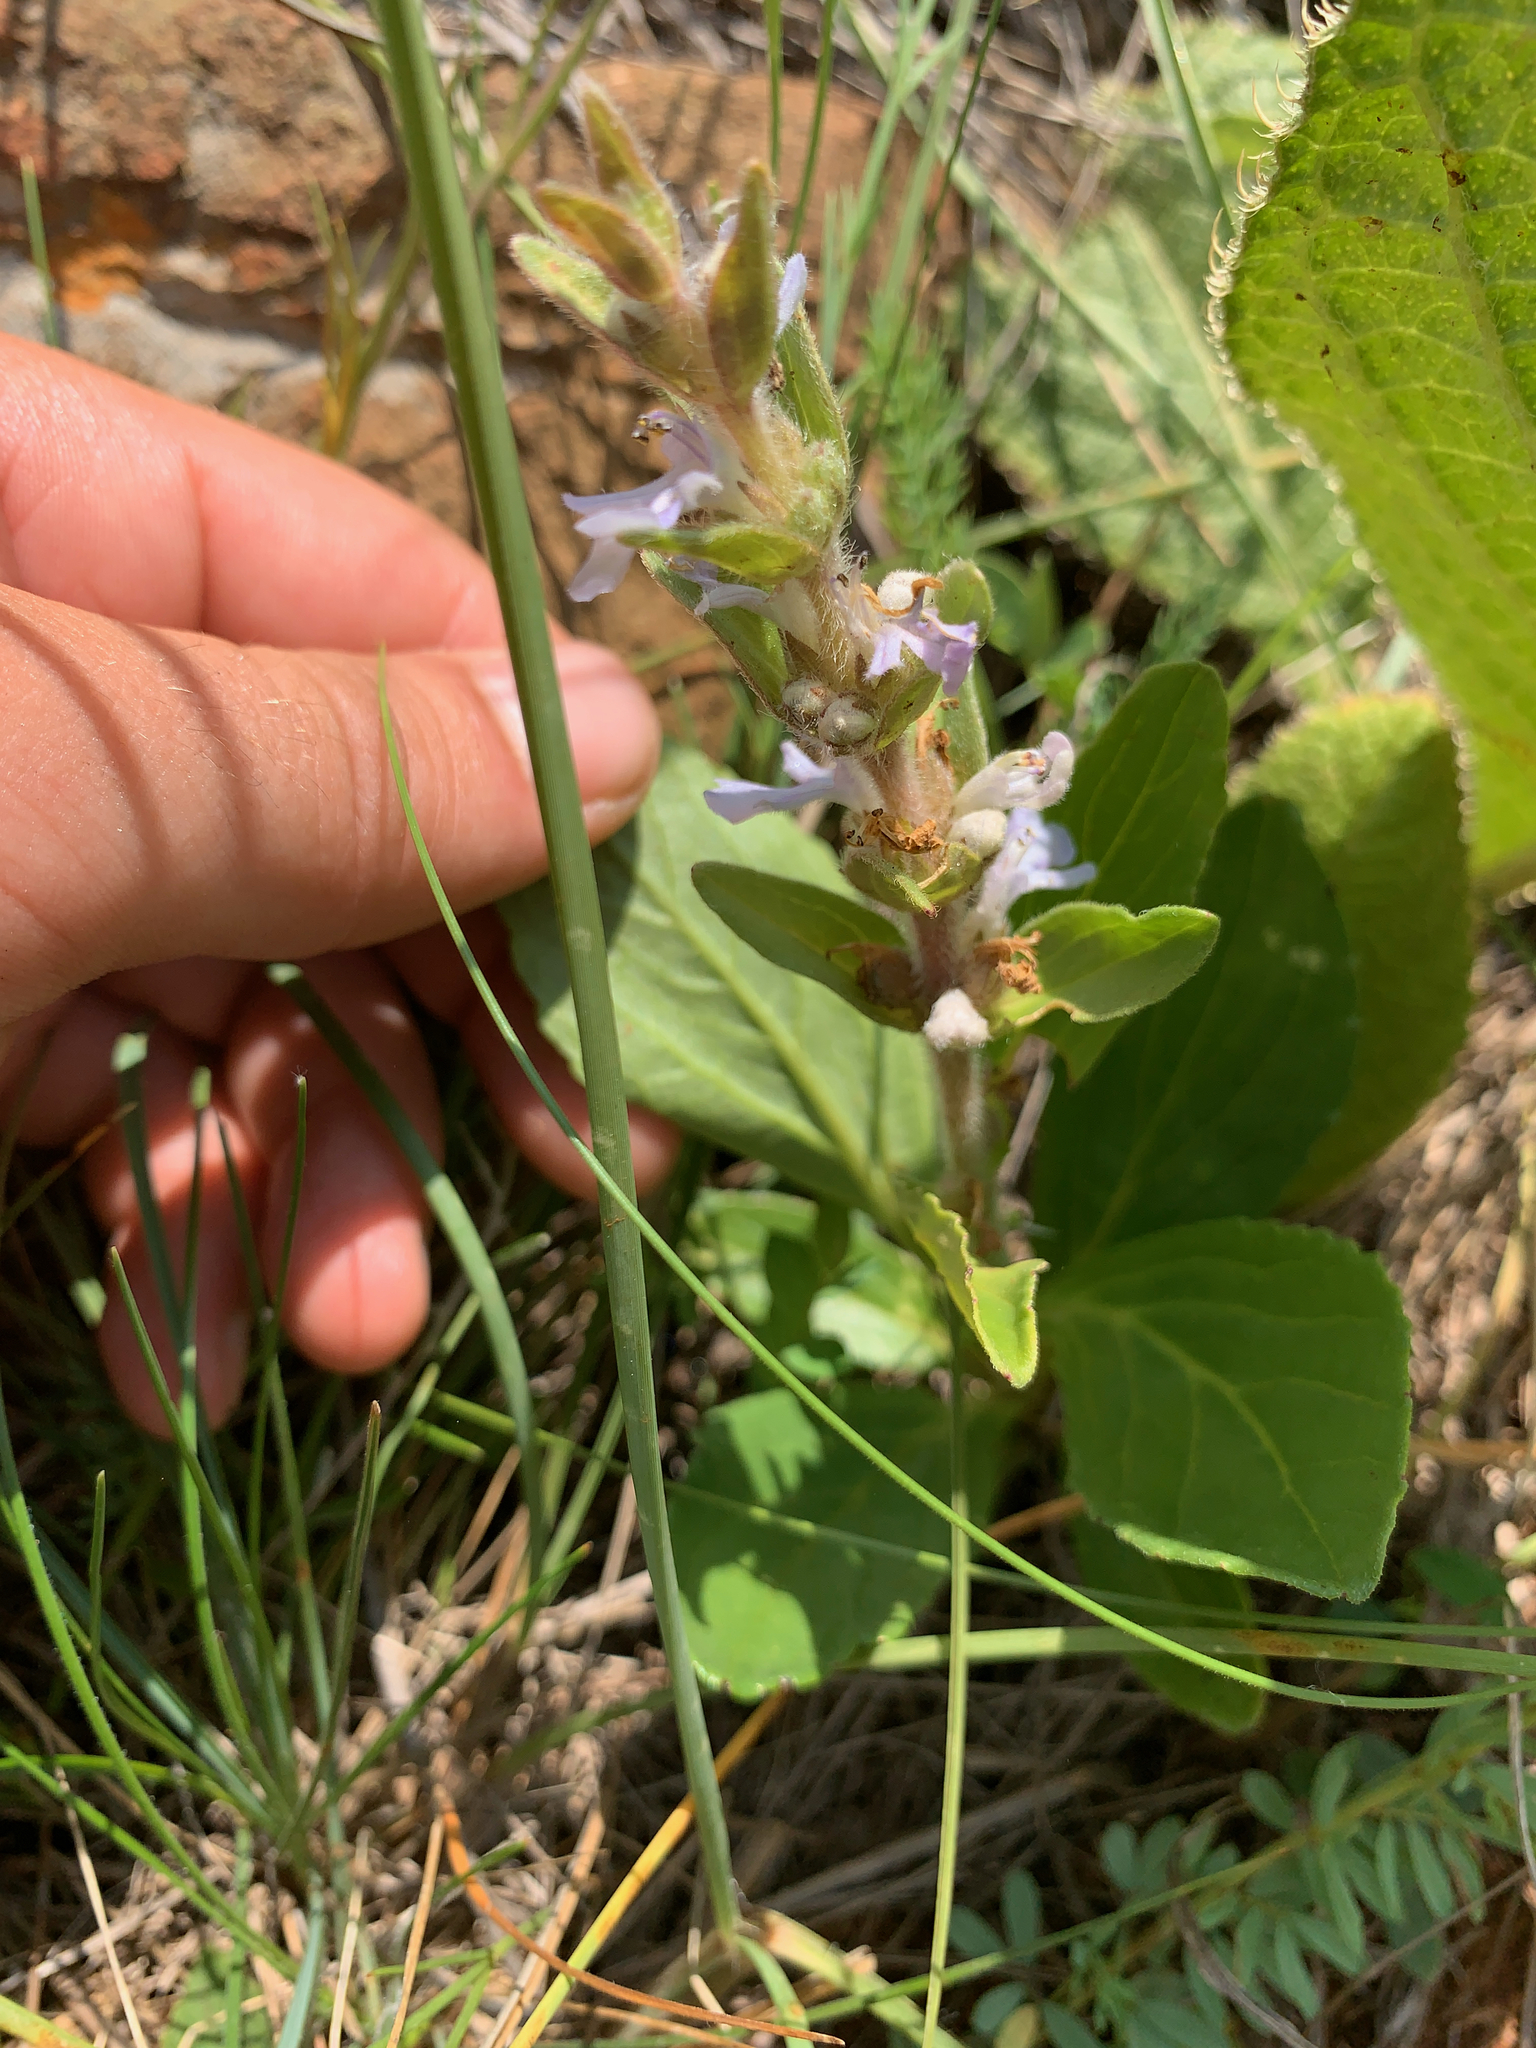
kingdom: Plantae
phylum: Tracheophyta
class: Magnoliopsida
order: Lamiales
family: Lamiaceae
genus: Ajuga
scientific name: Ajuga ophrydis
